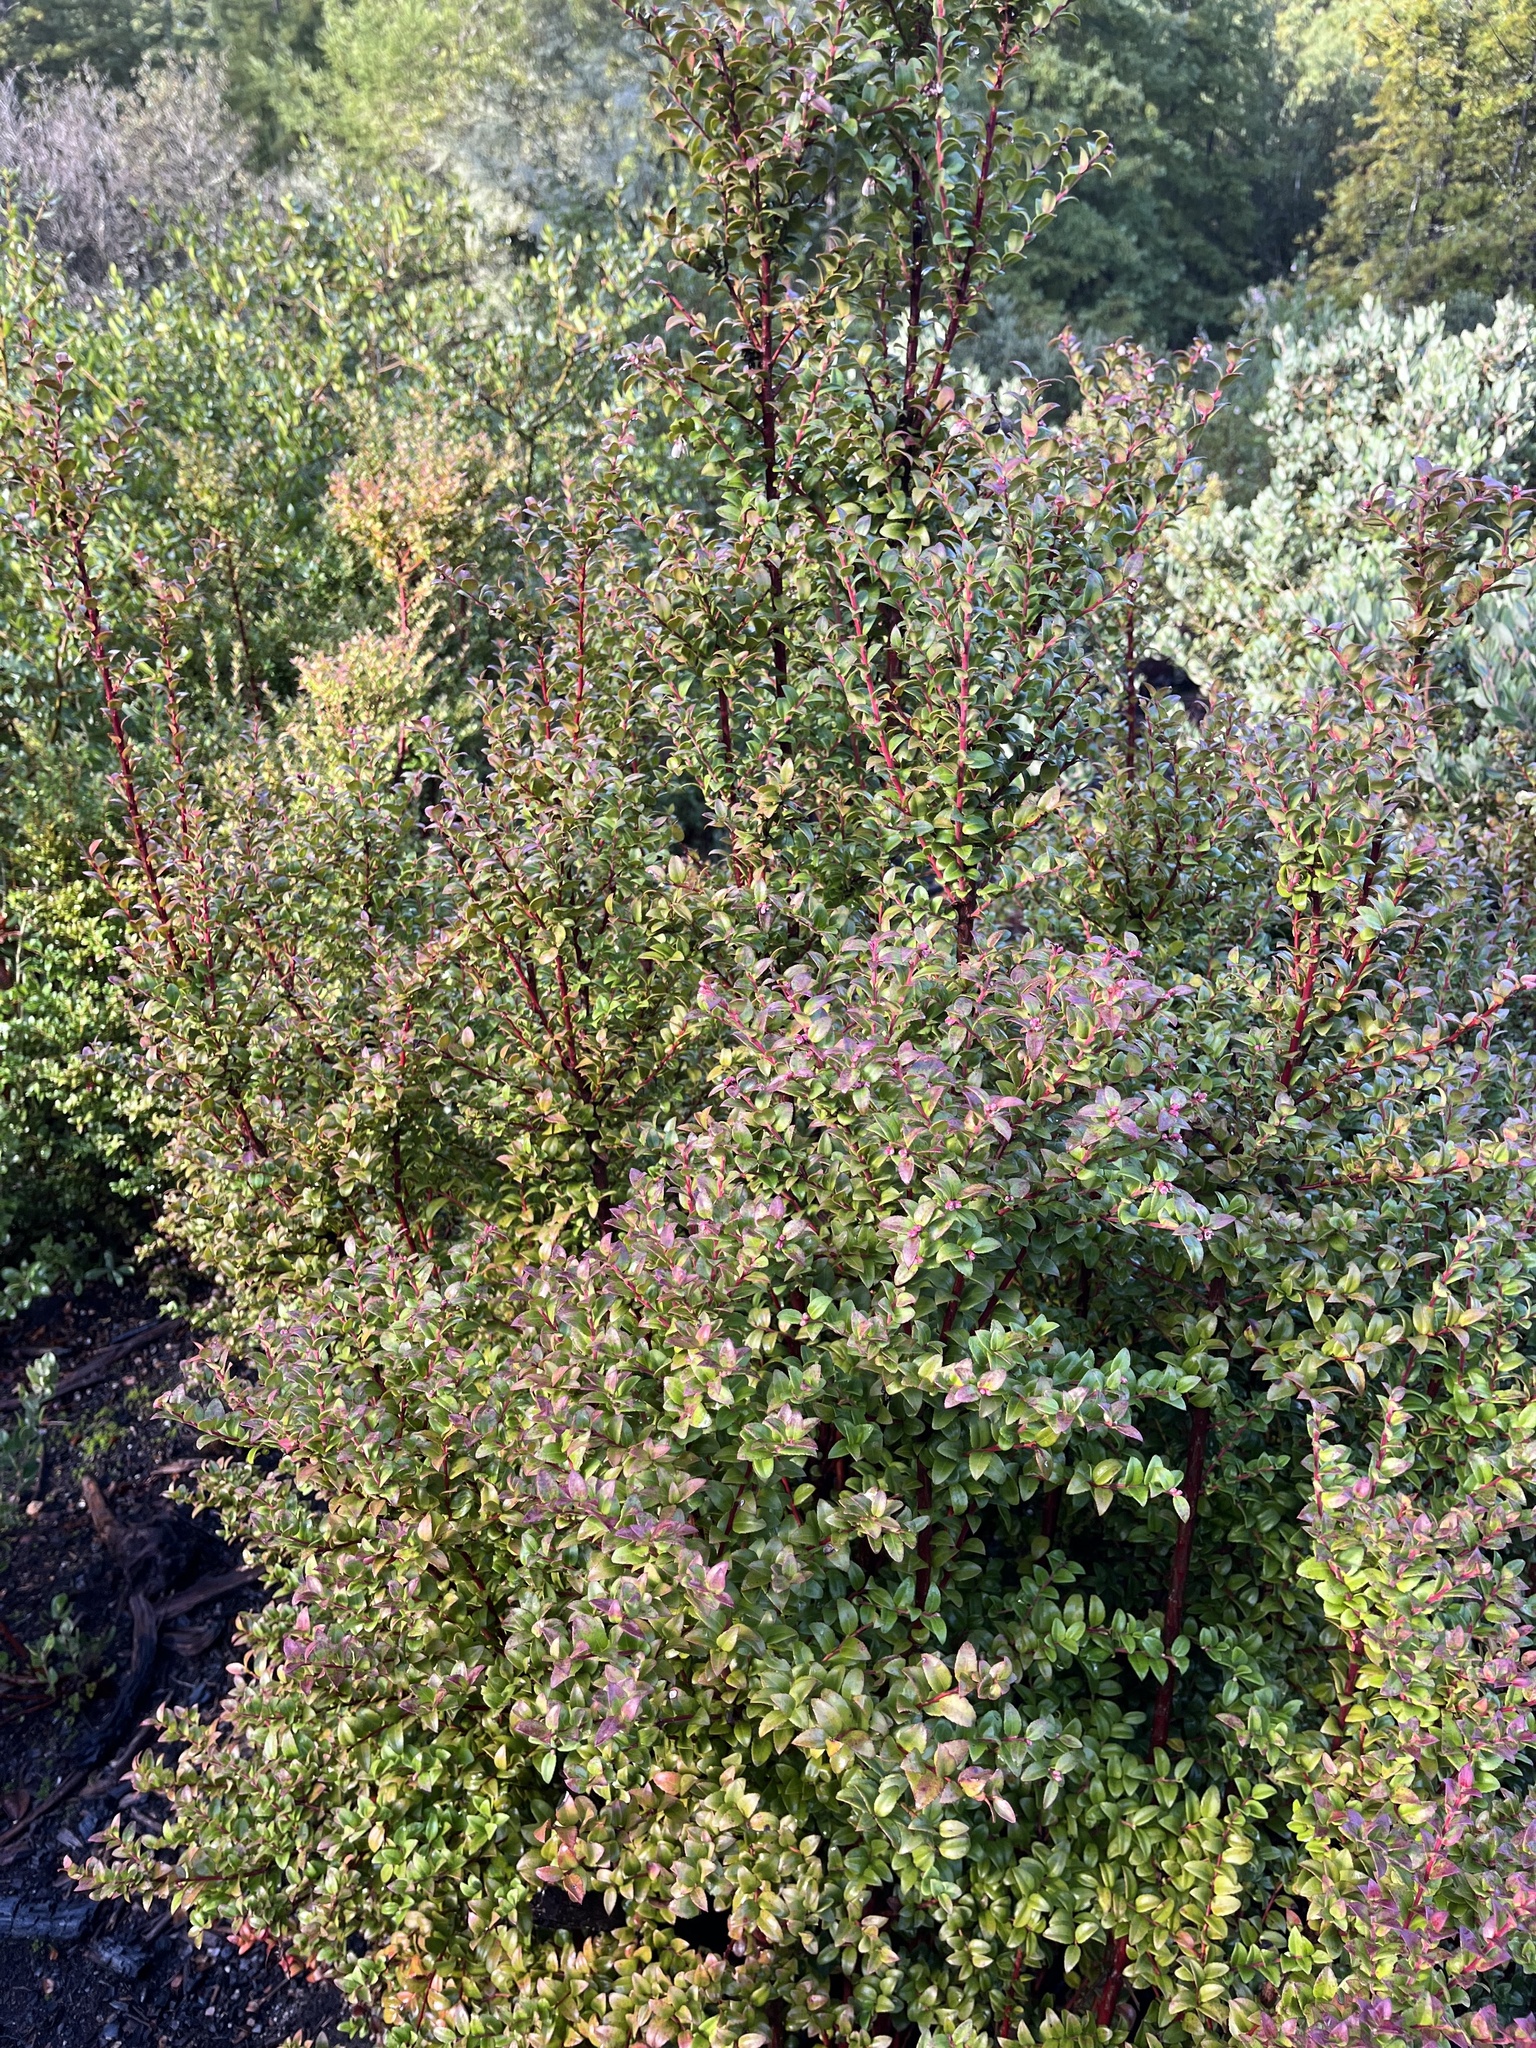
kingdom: Plantae
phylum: Tracheophyta
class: Magnoliopsida
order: Ericales
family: Ericaceae
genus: Vaccinium
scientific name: Vaccinium ovatum
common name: California-huckleberry
